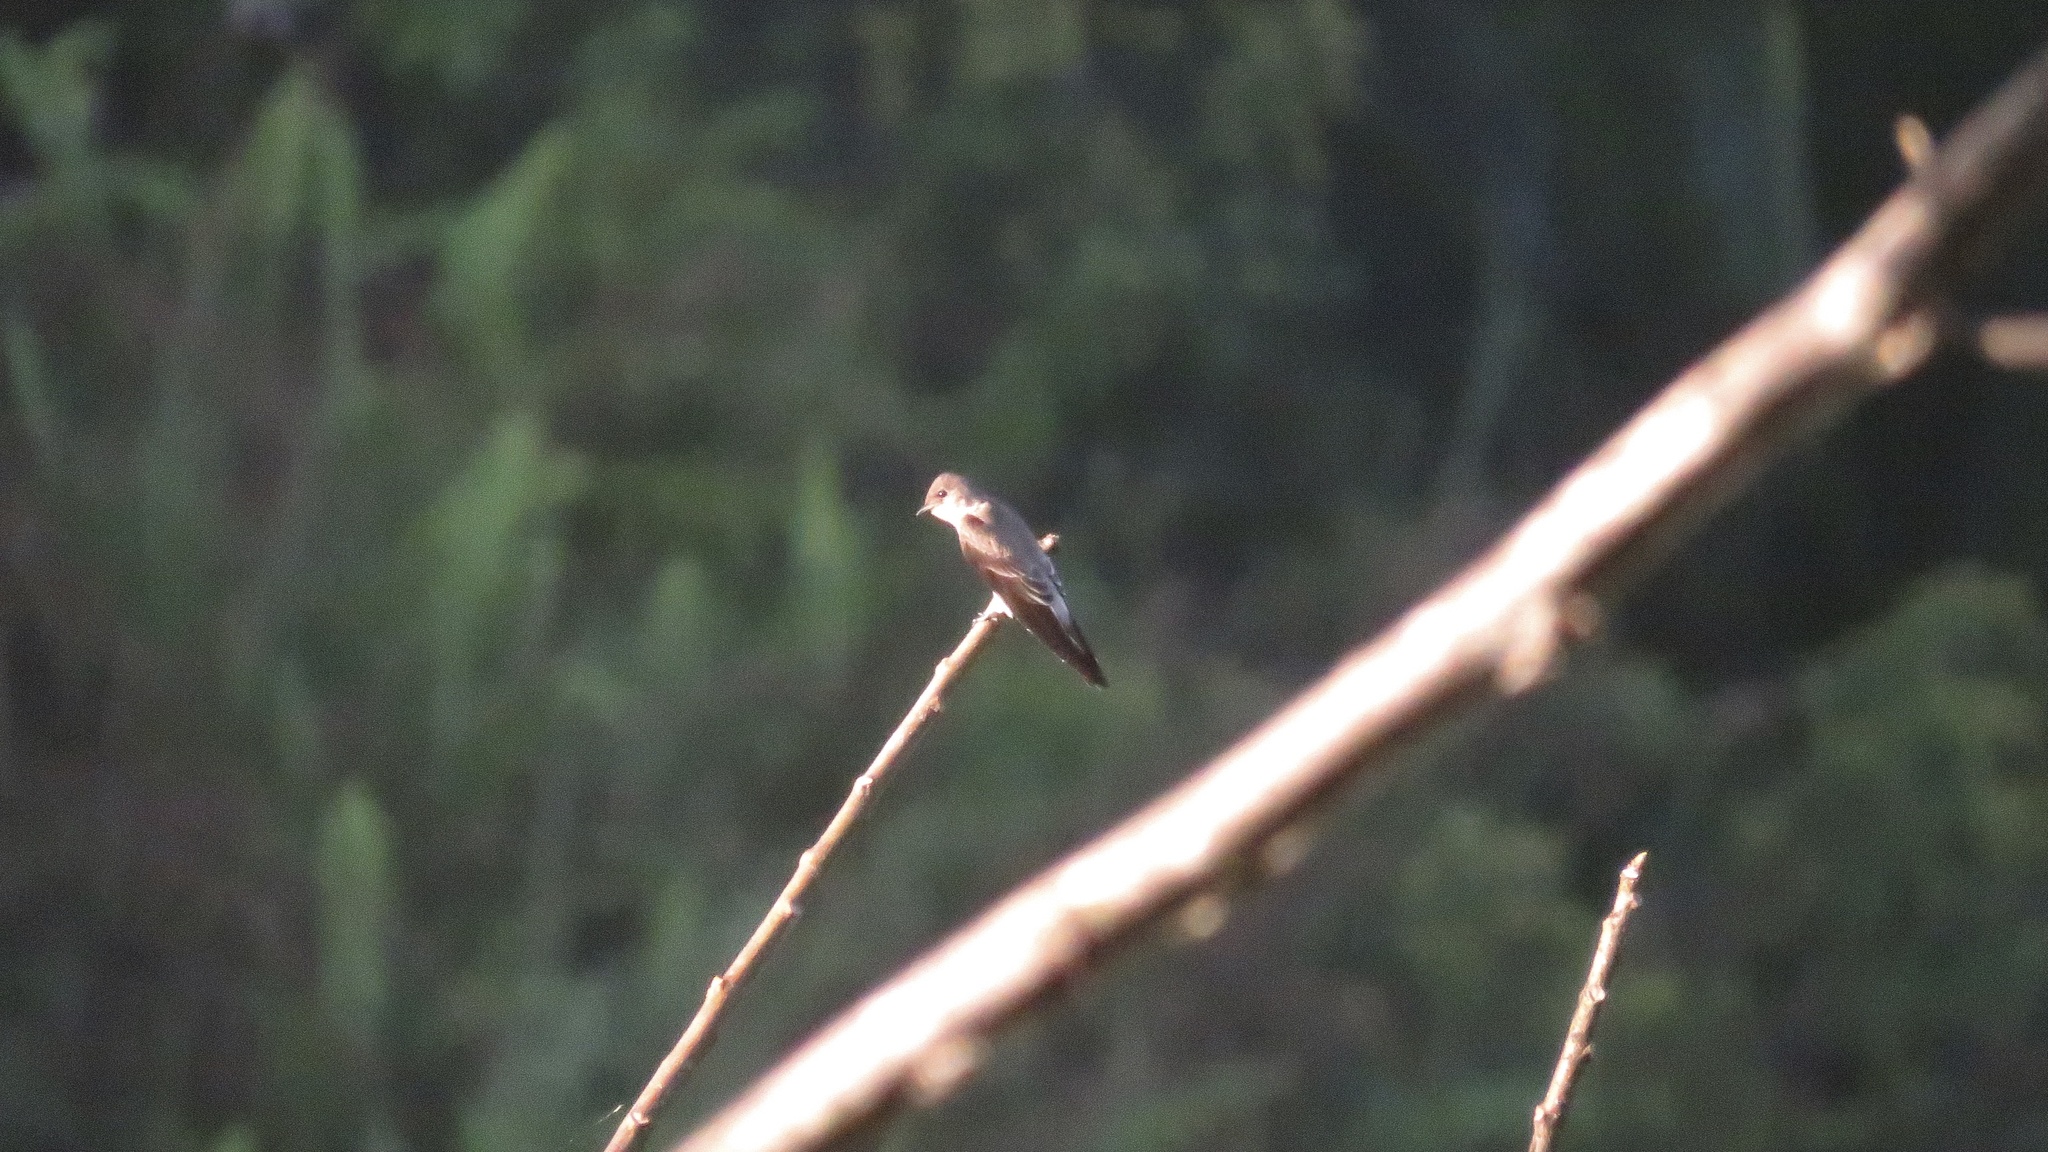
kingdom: Animalia
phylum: Chordata
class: Aves
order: Passeriformes
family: Hirundinidae
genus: Stelgidopteryx
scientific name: Stelgidopteryx ruficollis
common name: Southern rough-winged swallow
